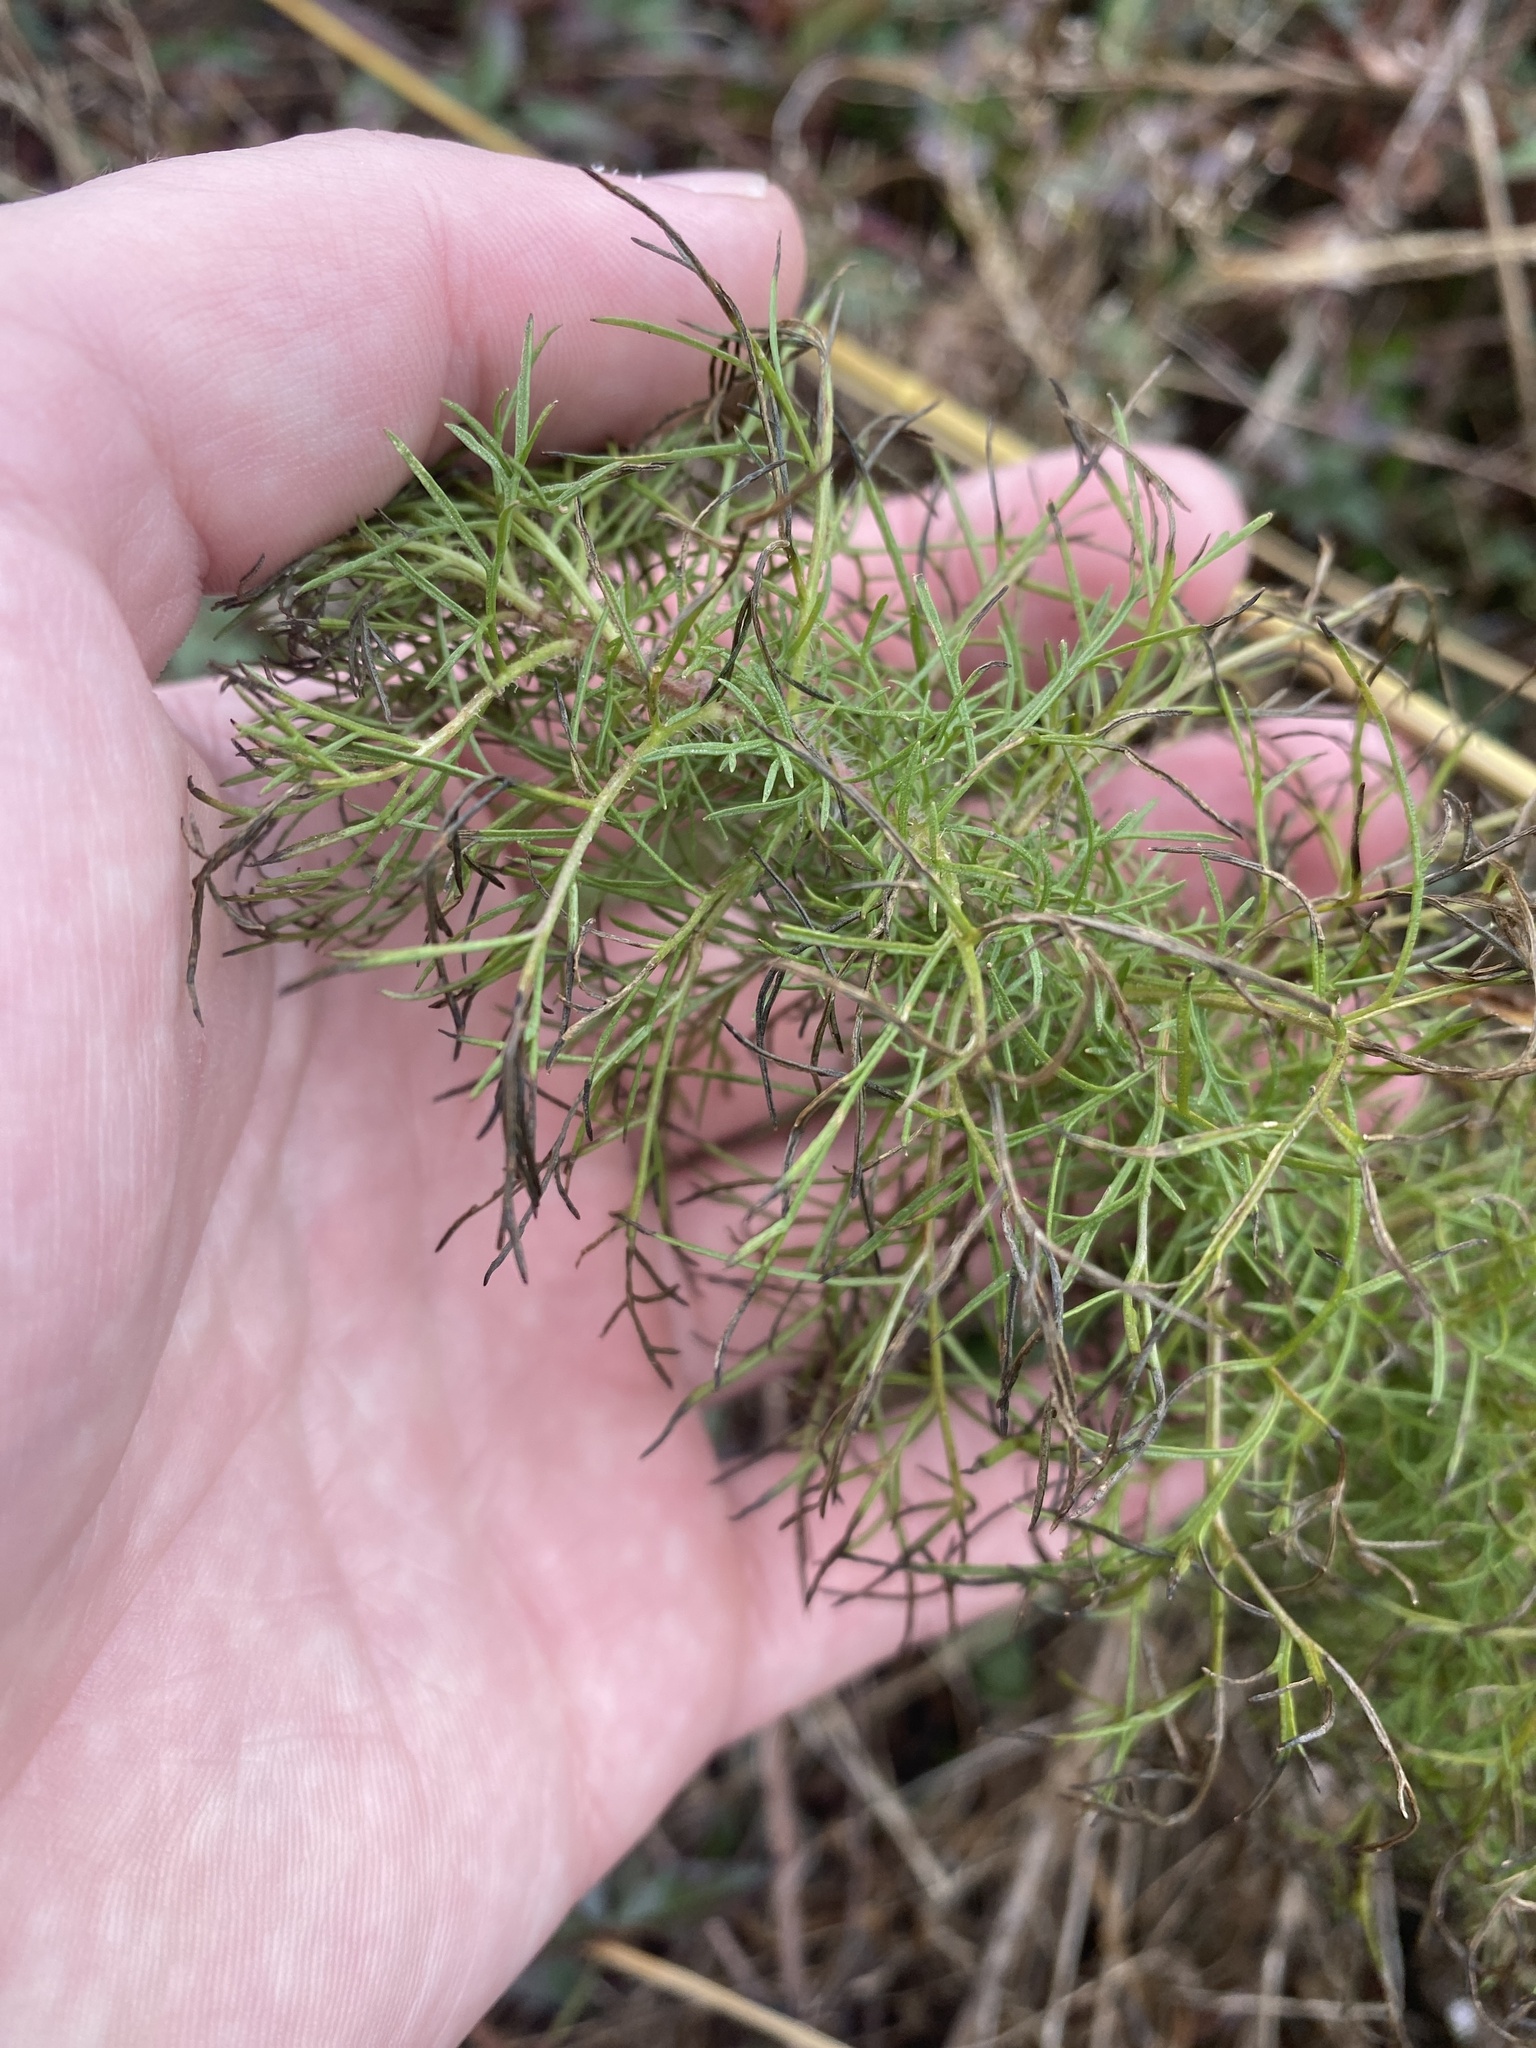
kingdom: Plantae
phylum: Tracheophyta
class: Magnoliopsida
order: Asterales
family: Asteraceae
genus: Eupatorium
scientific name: Eupatorium capillifolium
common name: Dog-fennel
